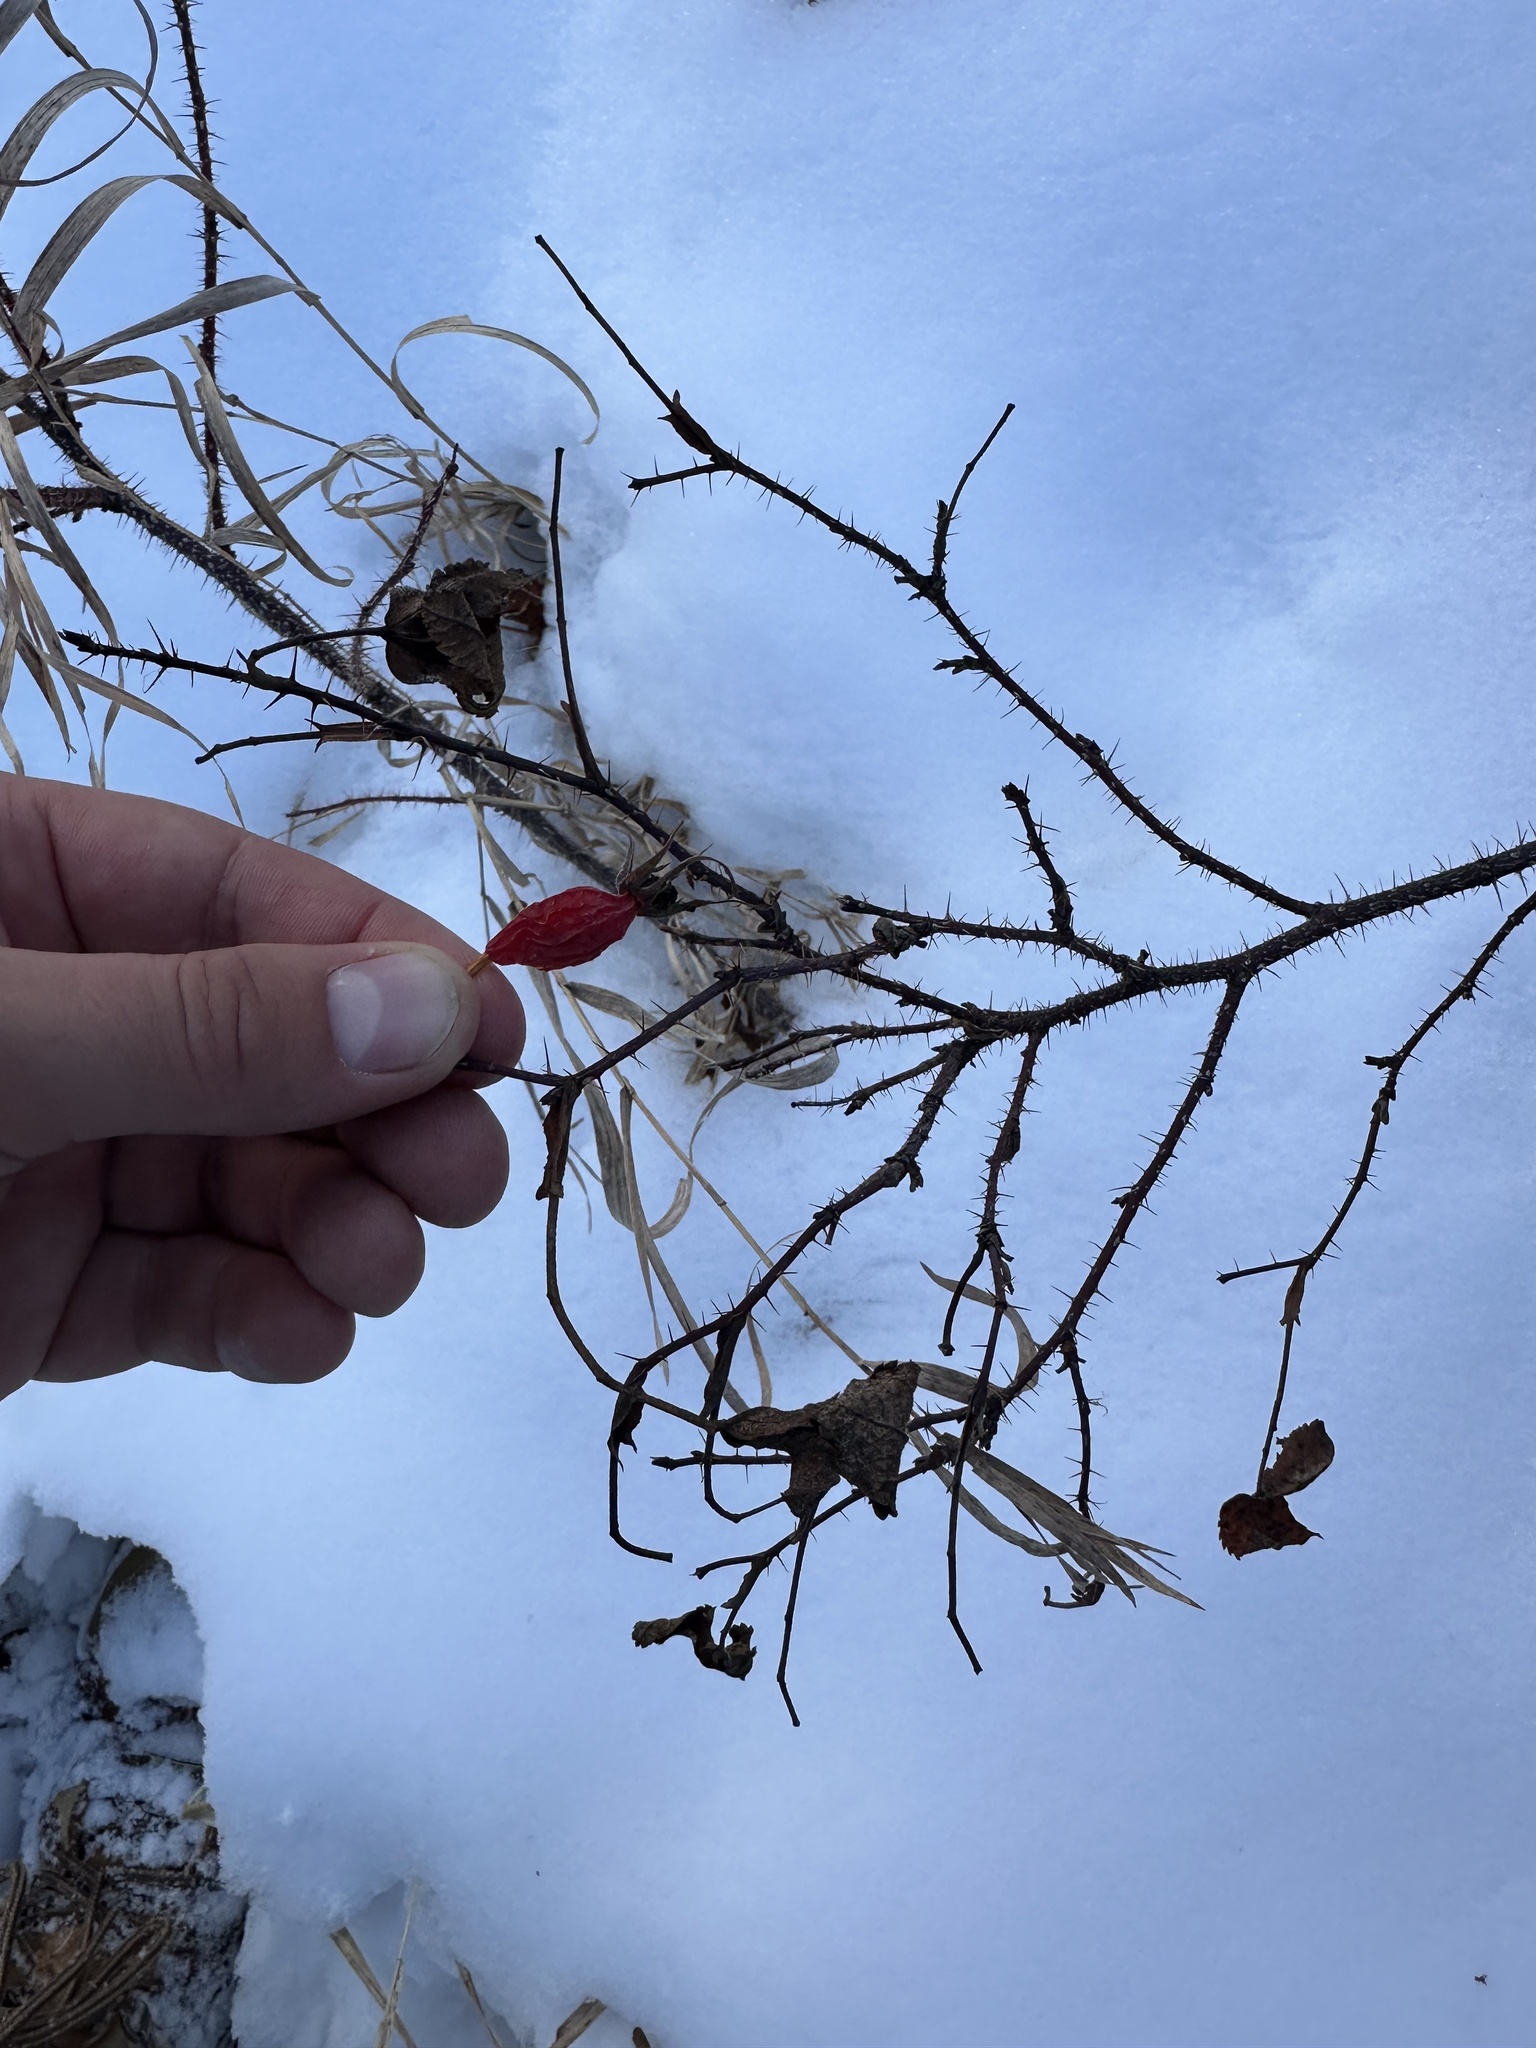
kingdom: Plantae
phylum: Tracheophyta
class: Magnoliopsida
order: Rosales
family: Rosaceae
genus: Rosa
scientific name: Rosa acicularis
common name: Prickly rose
